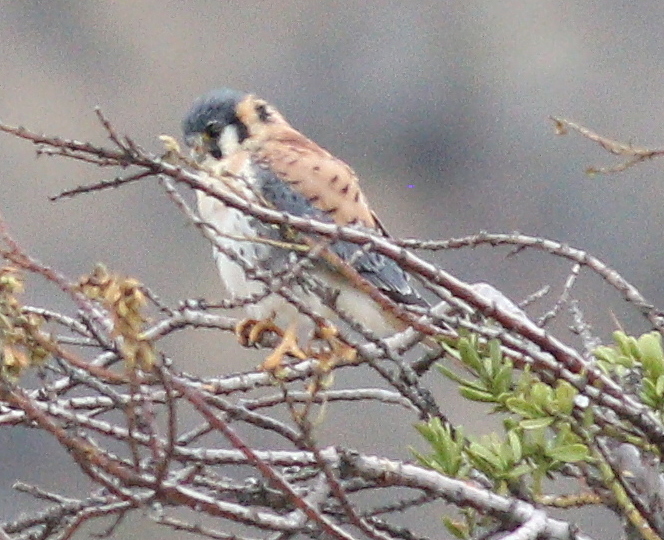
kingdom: Animalia
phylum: Chordata
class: Aves
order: Falconiformes
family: Falconidae
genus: Falco
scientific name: Falco sparverius
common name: American kestrel
